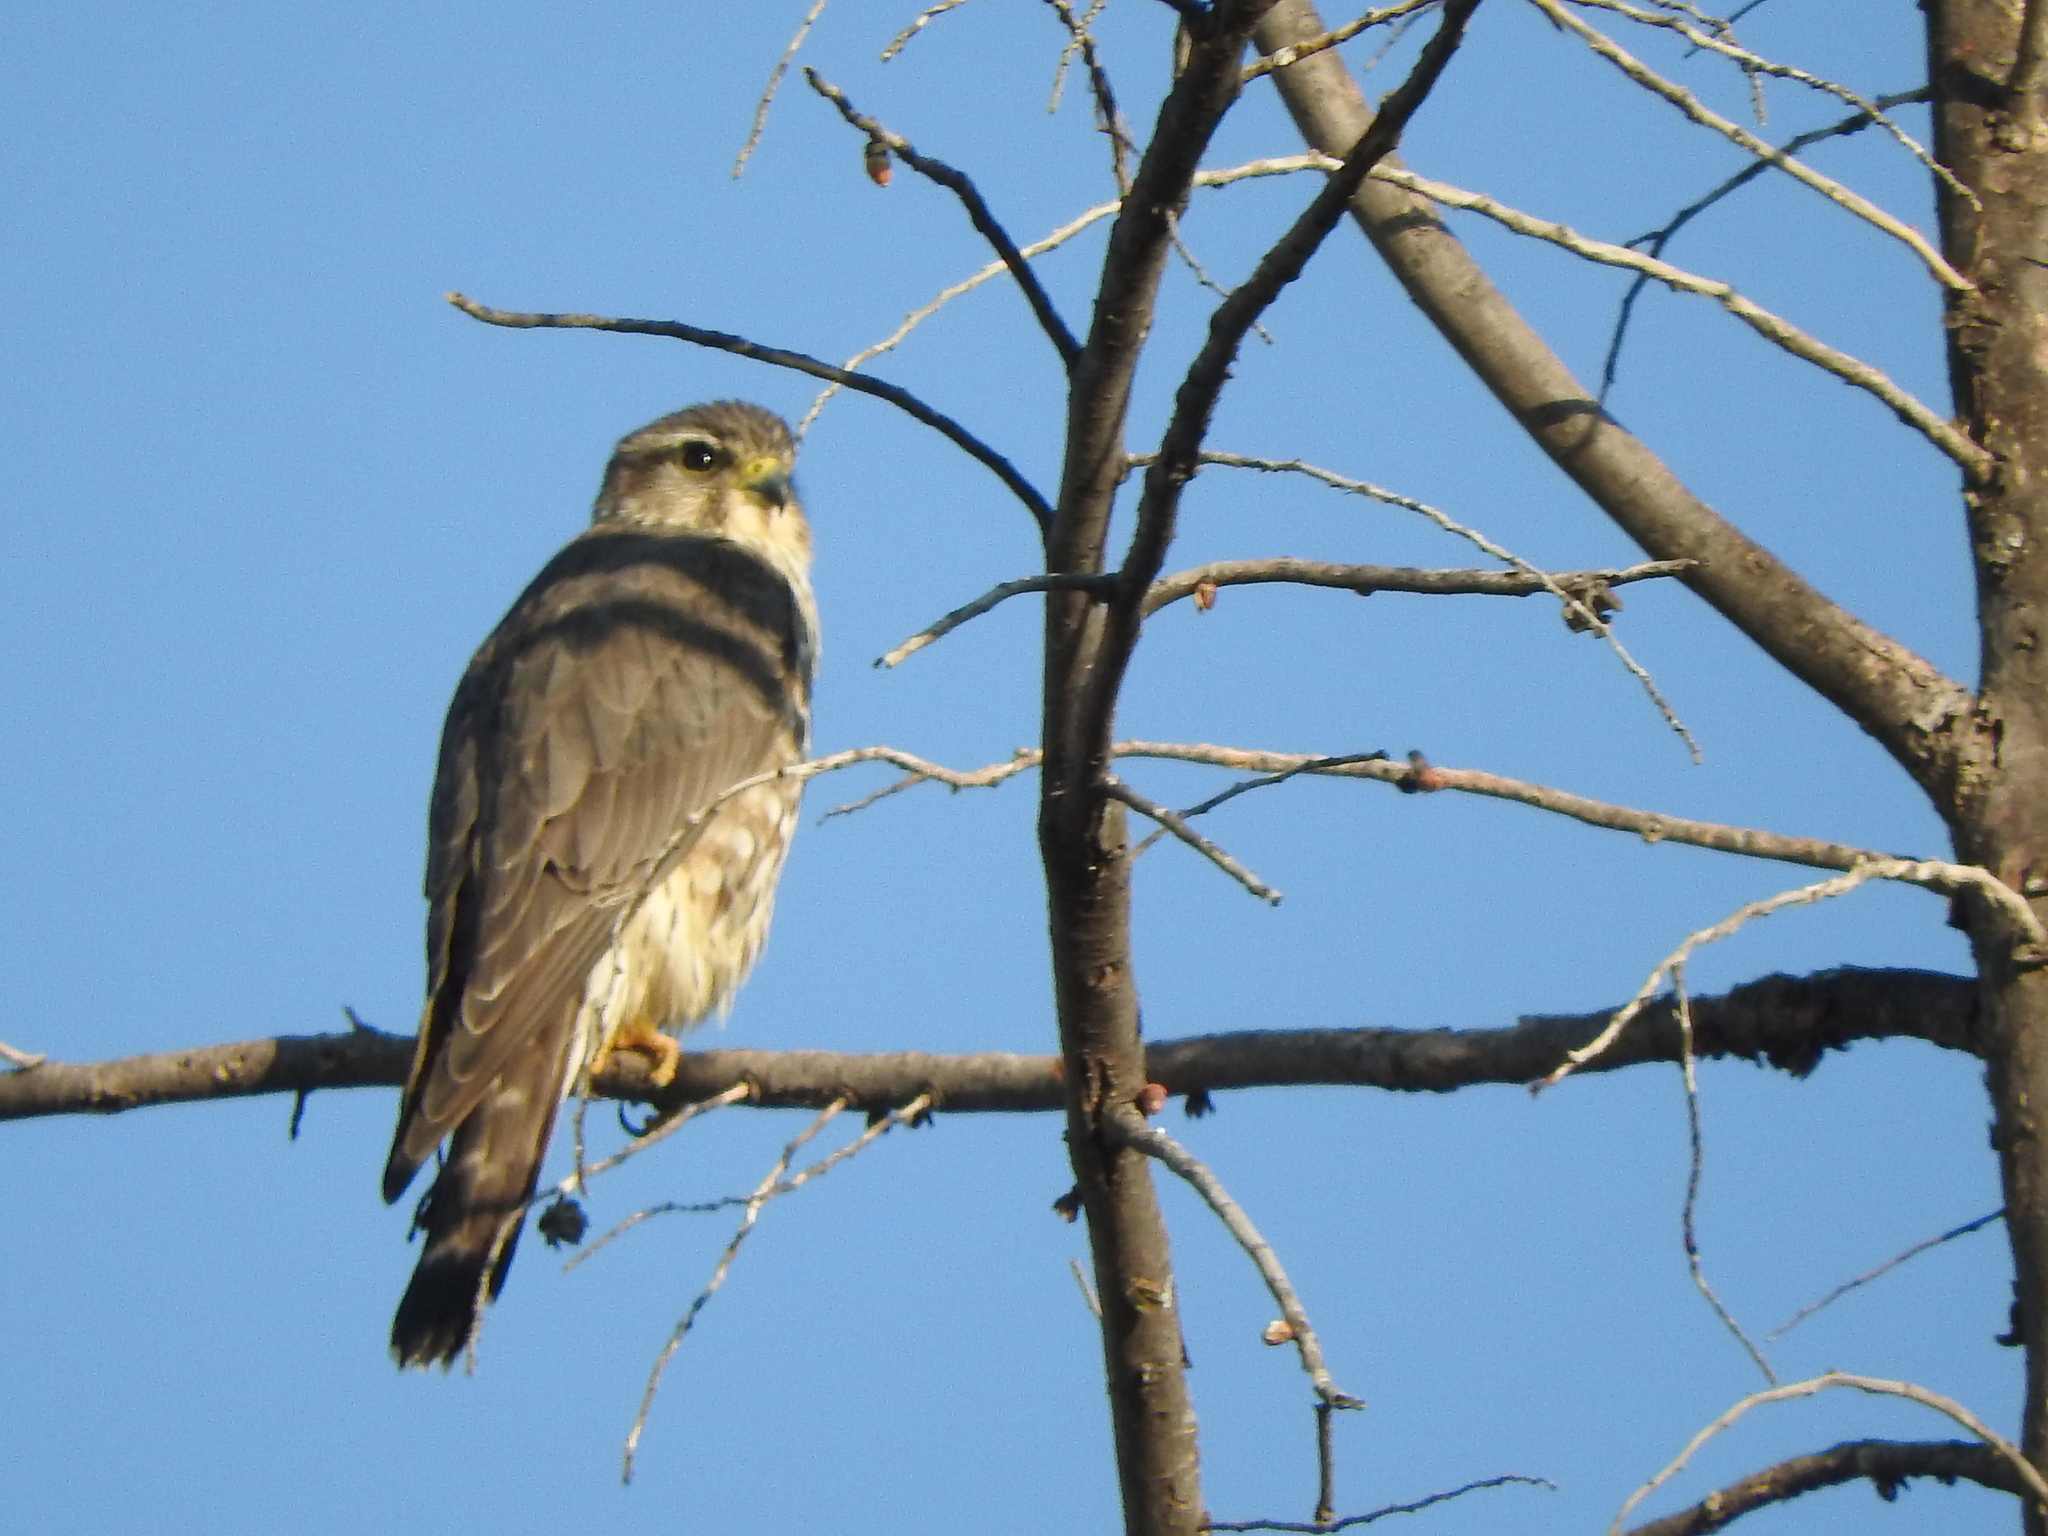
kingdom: Animalia
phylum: Chordata
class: Aves
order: Falconiformes
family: Falconidae
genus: Falco
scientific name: Falco columbarius
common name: Merlin
